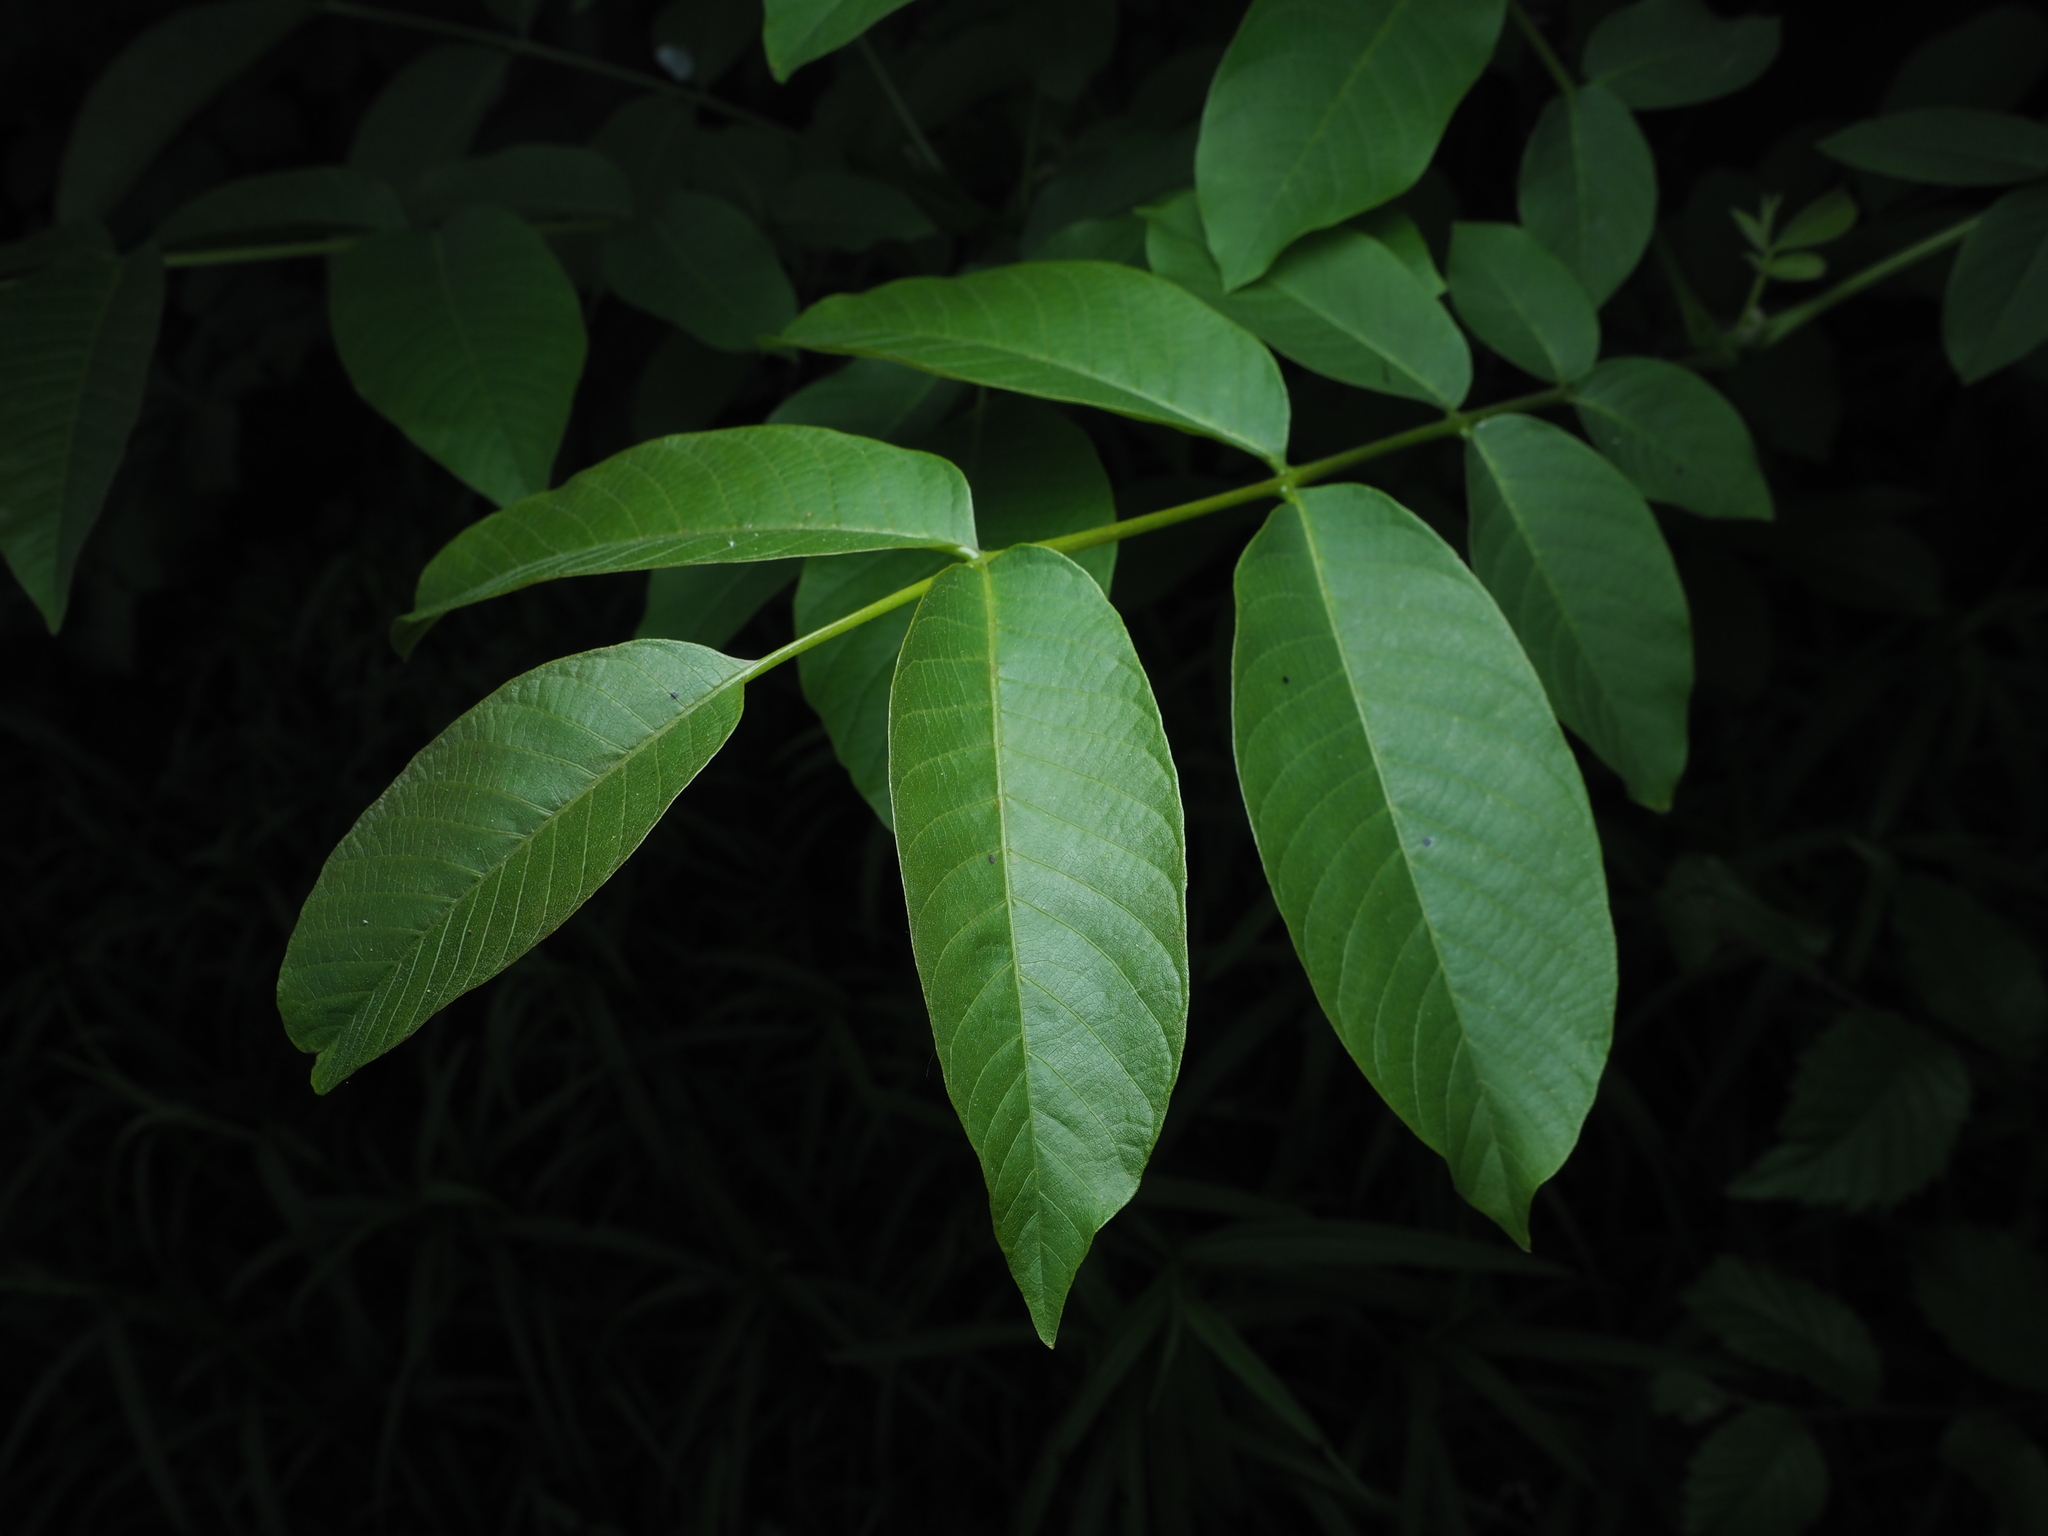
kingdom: Plantae
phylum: Tracheophyta
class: Magnoliopsida
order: Fagales
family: Juglandaceae
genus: Juglans
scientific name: Juglans regia
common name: Walnut
